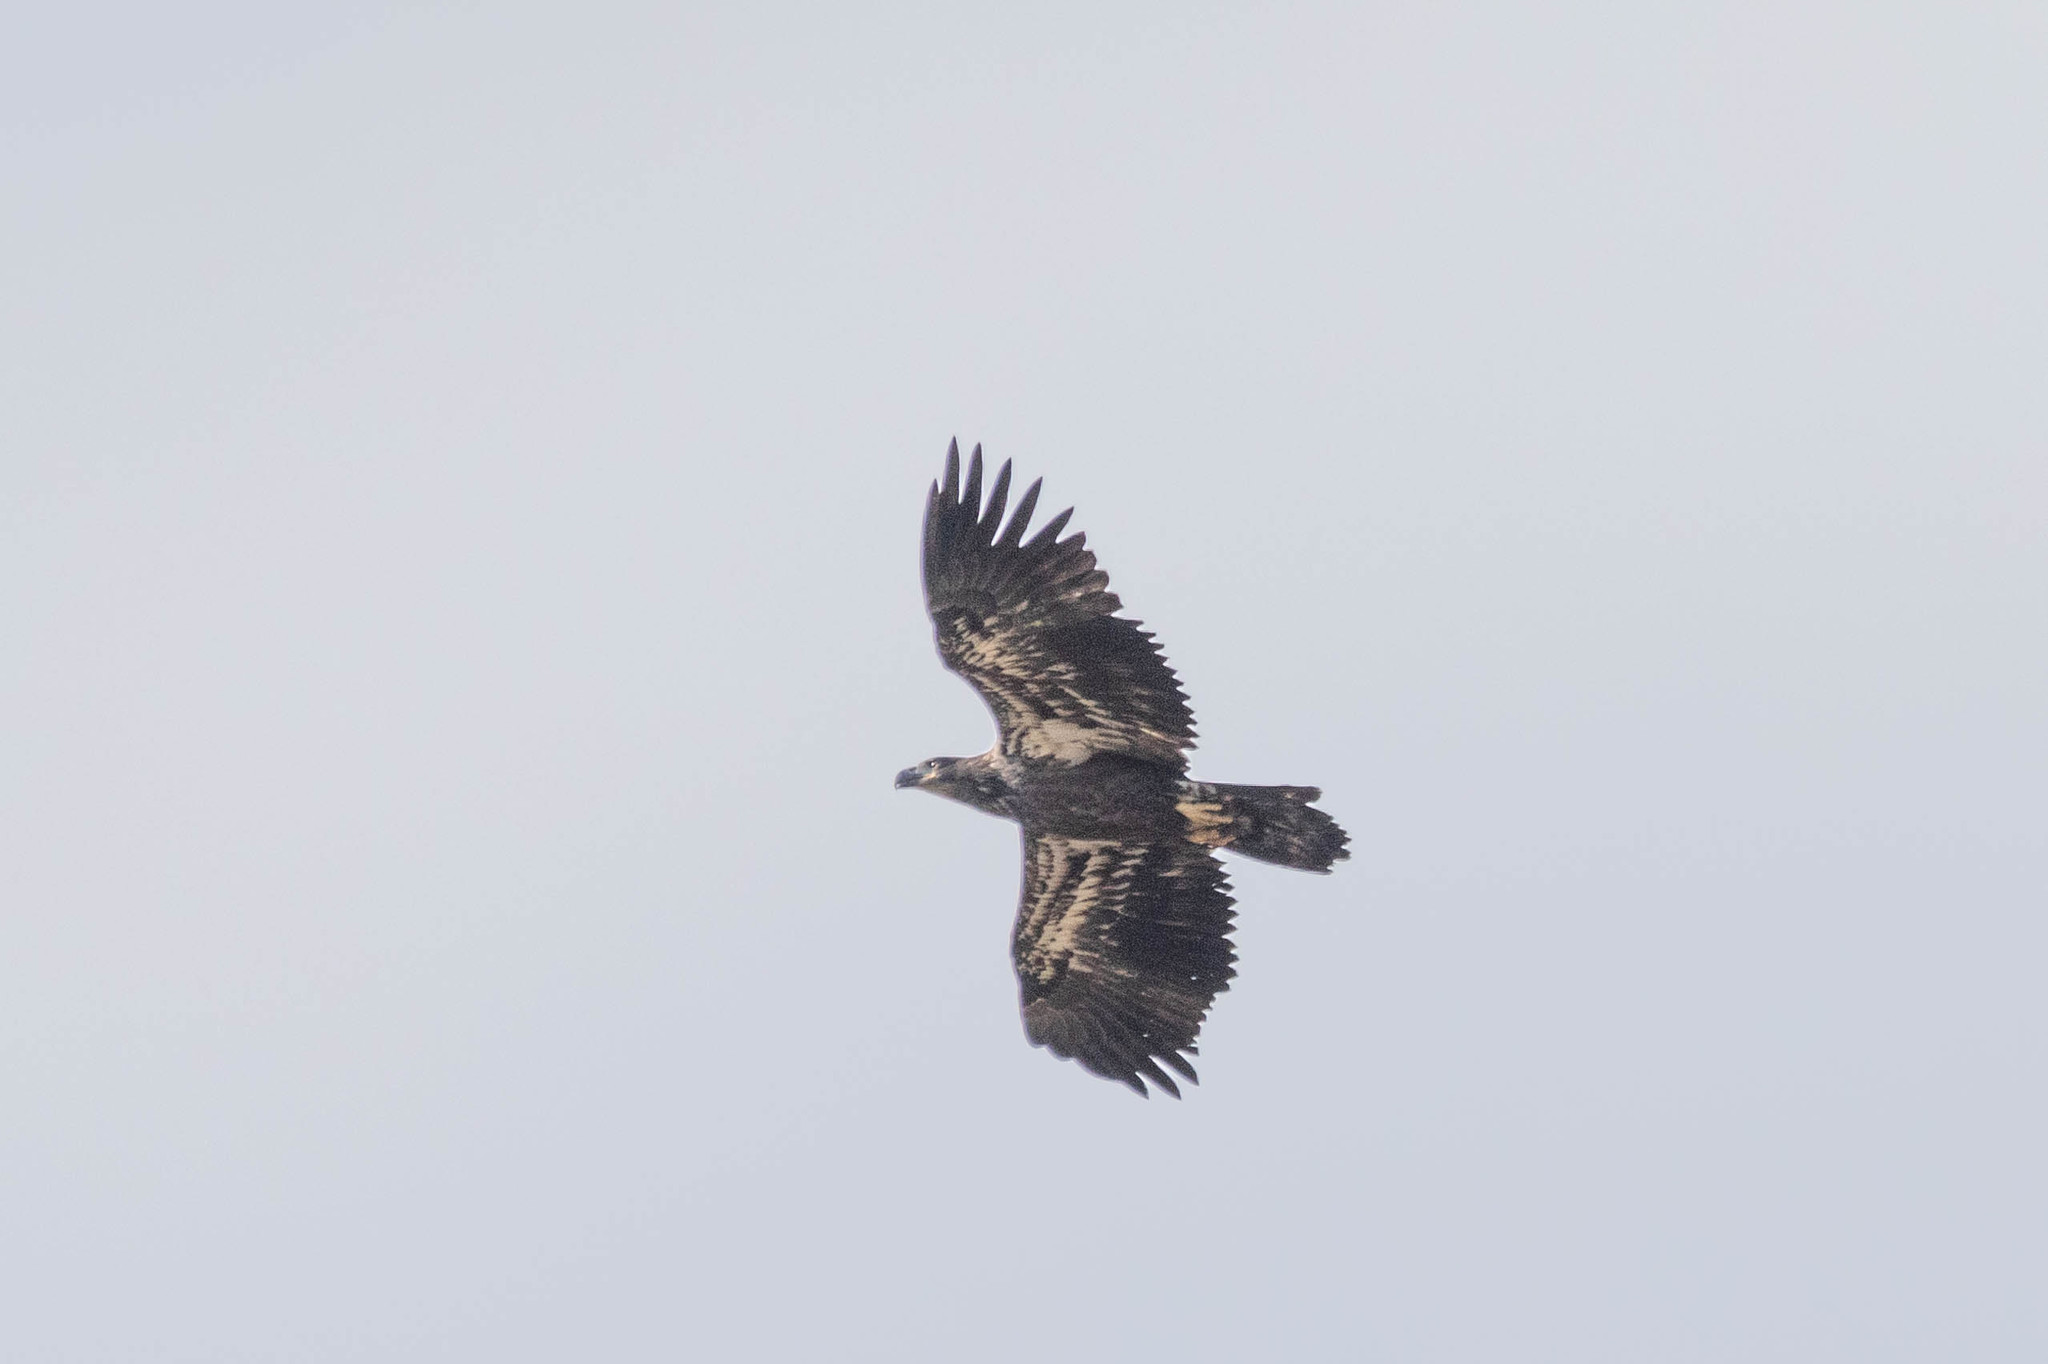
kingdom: Animalia
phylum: Chordata
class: Aves
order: Accipitriformes
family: Accipitridae
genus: Haliaeetus
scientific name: Haliaeetus leucocephalus
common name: Bald eagle
